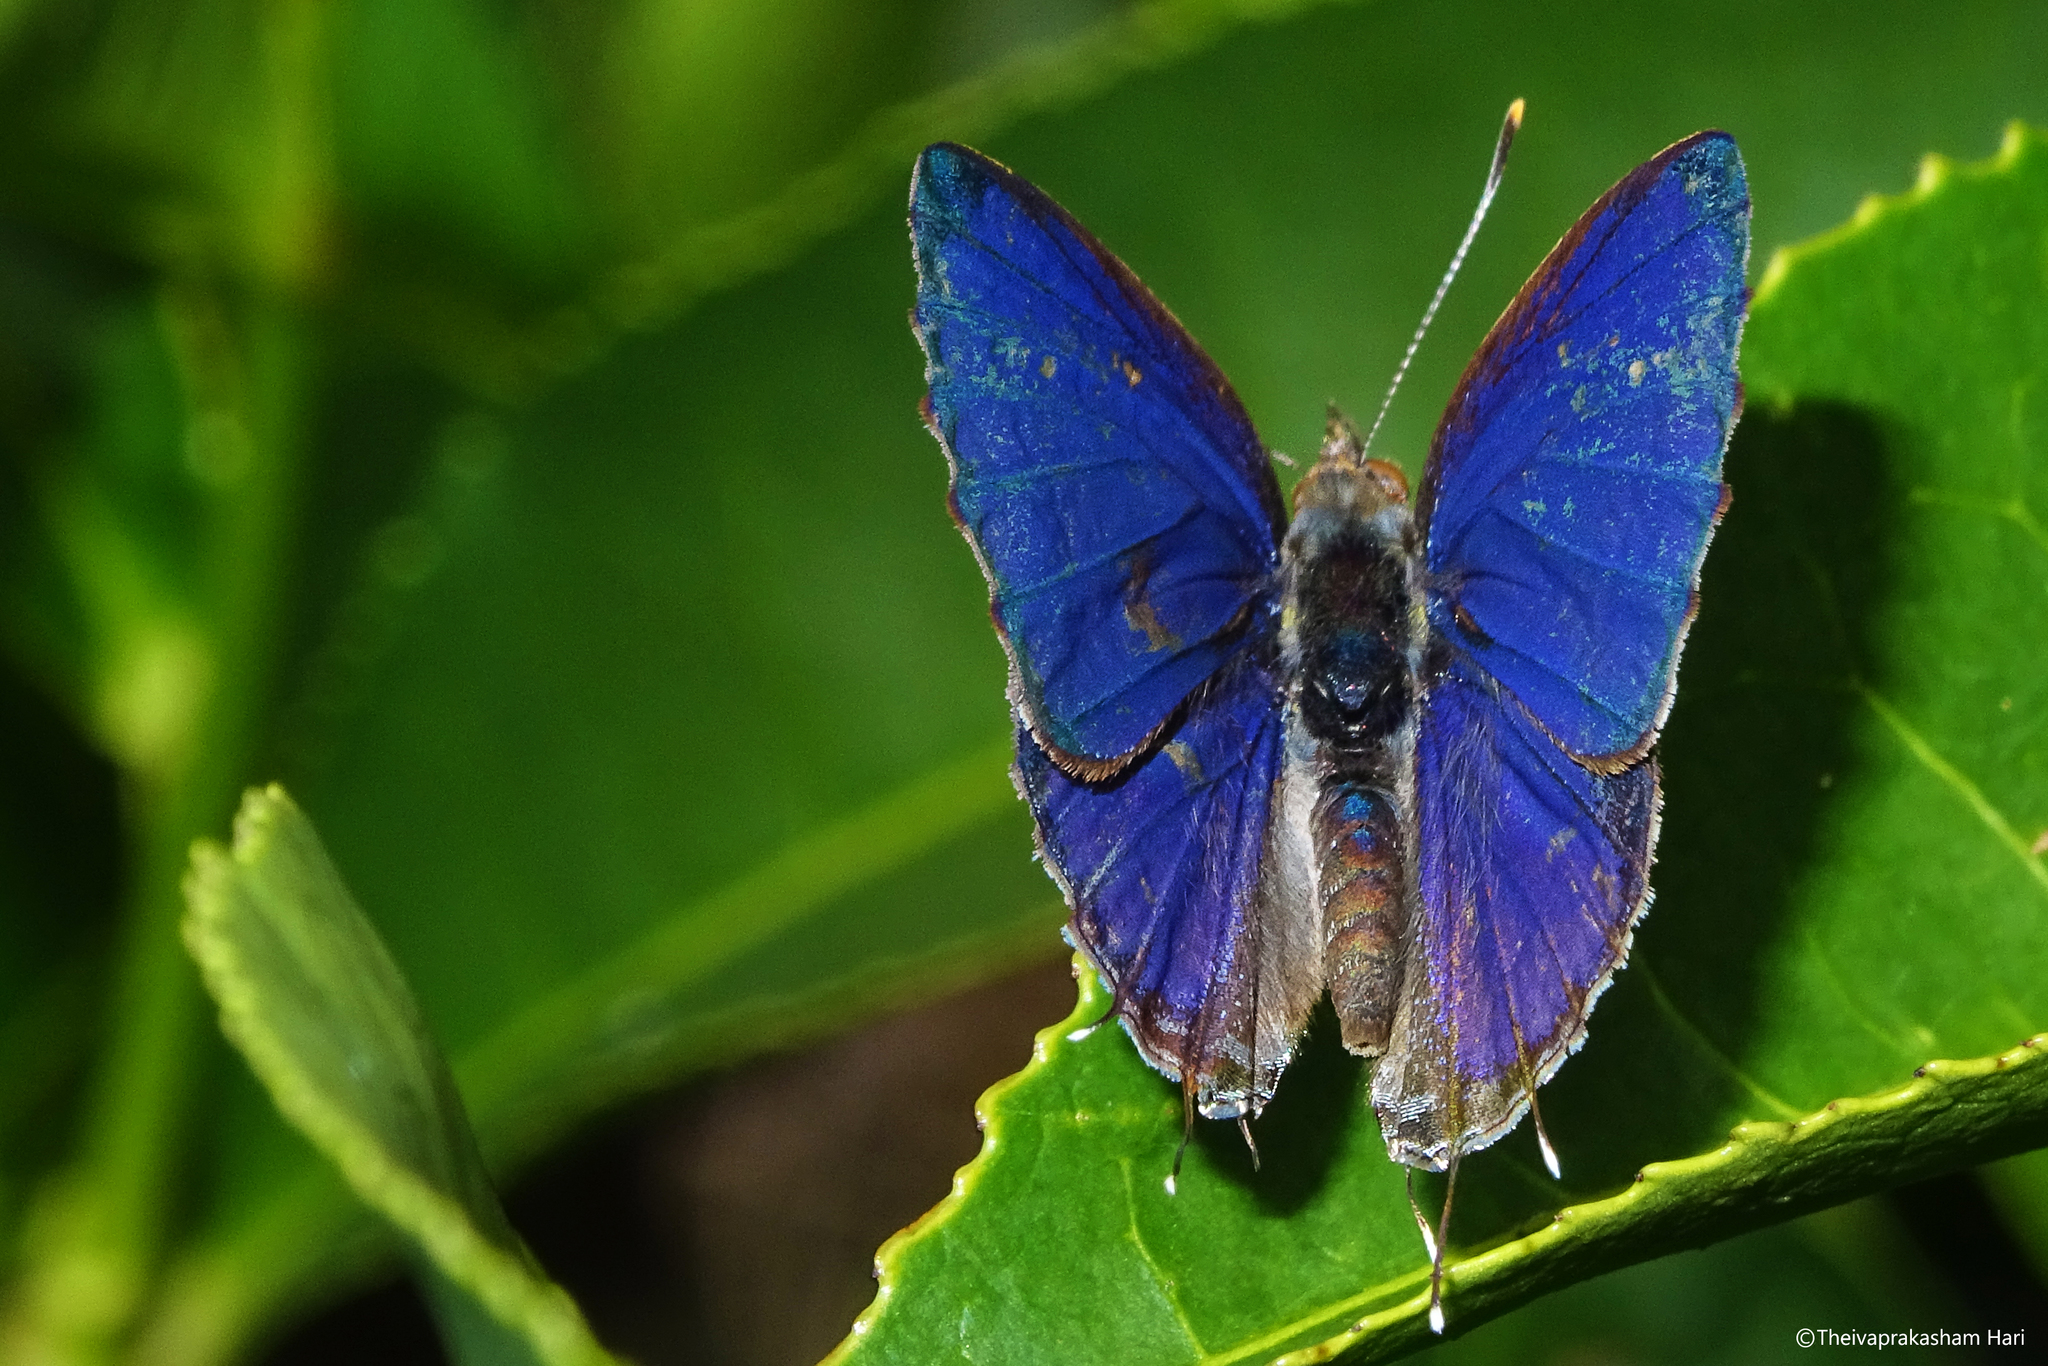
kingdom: Animalia
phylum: Arthropoda
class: Insecta
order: Lepidoptera
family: Lycaenidae
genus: Catapaecilma
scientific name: Catapaecilma major
